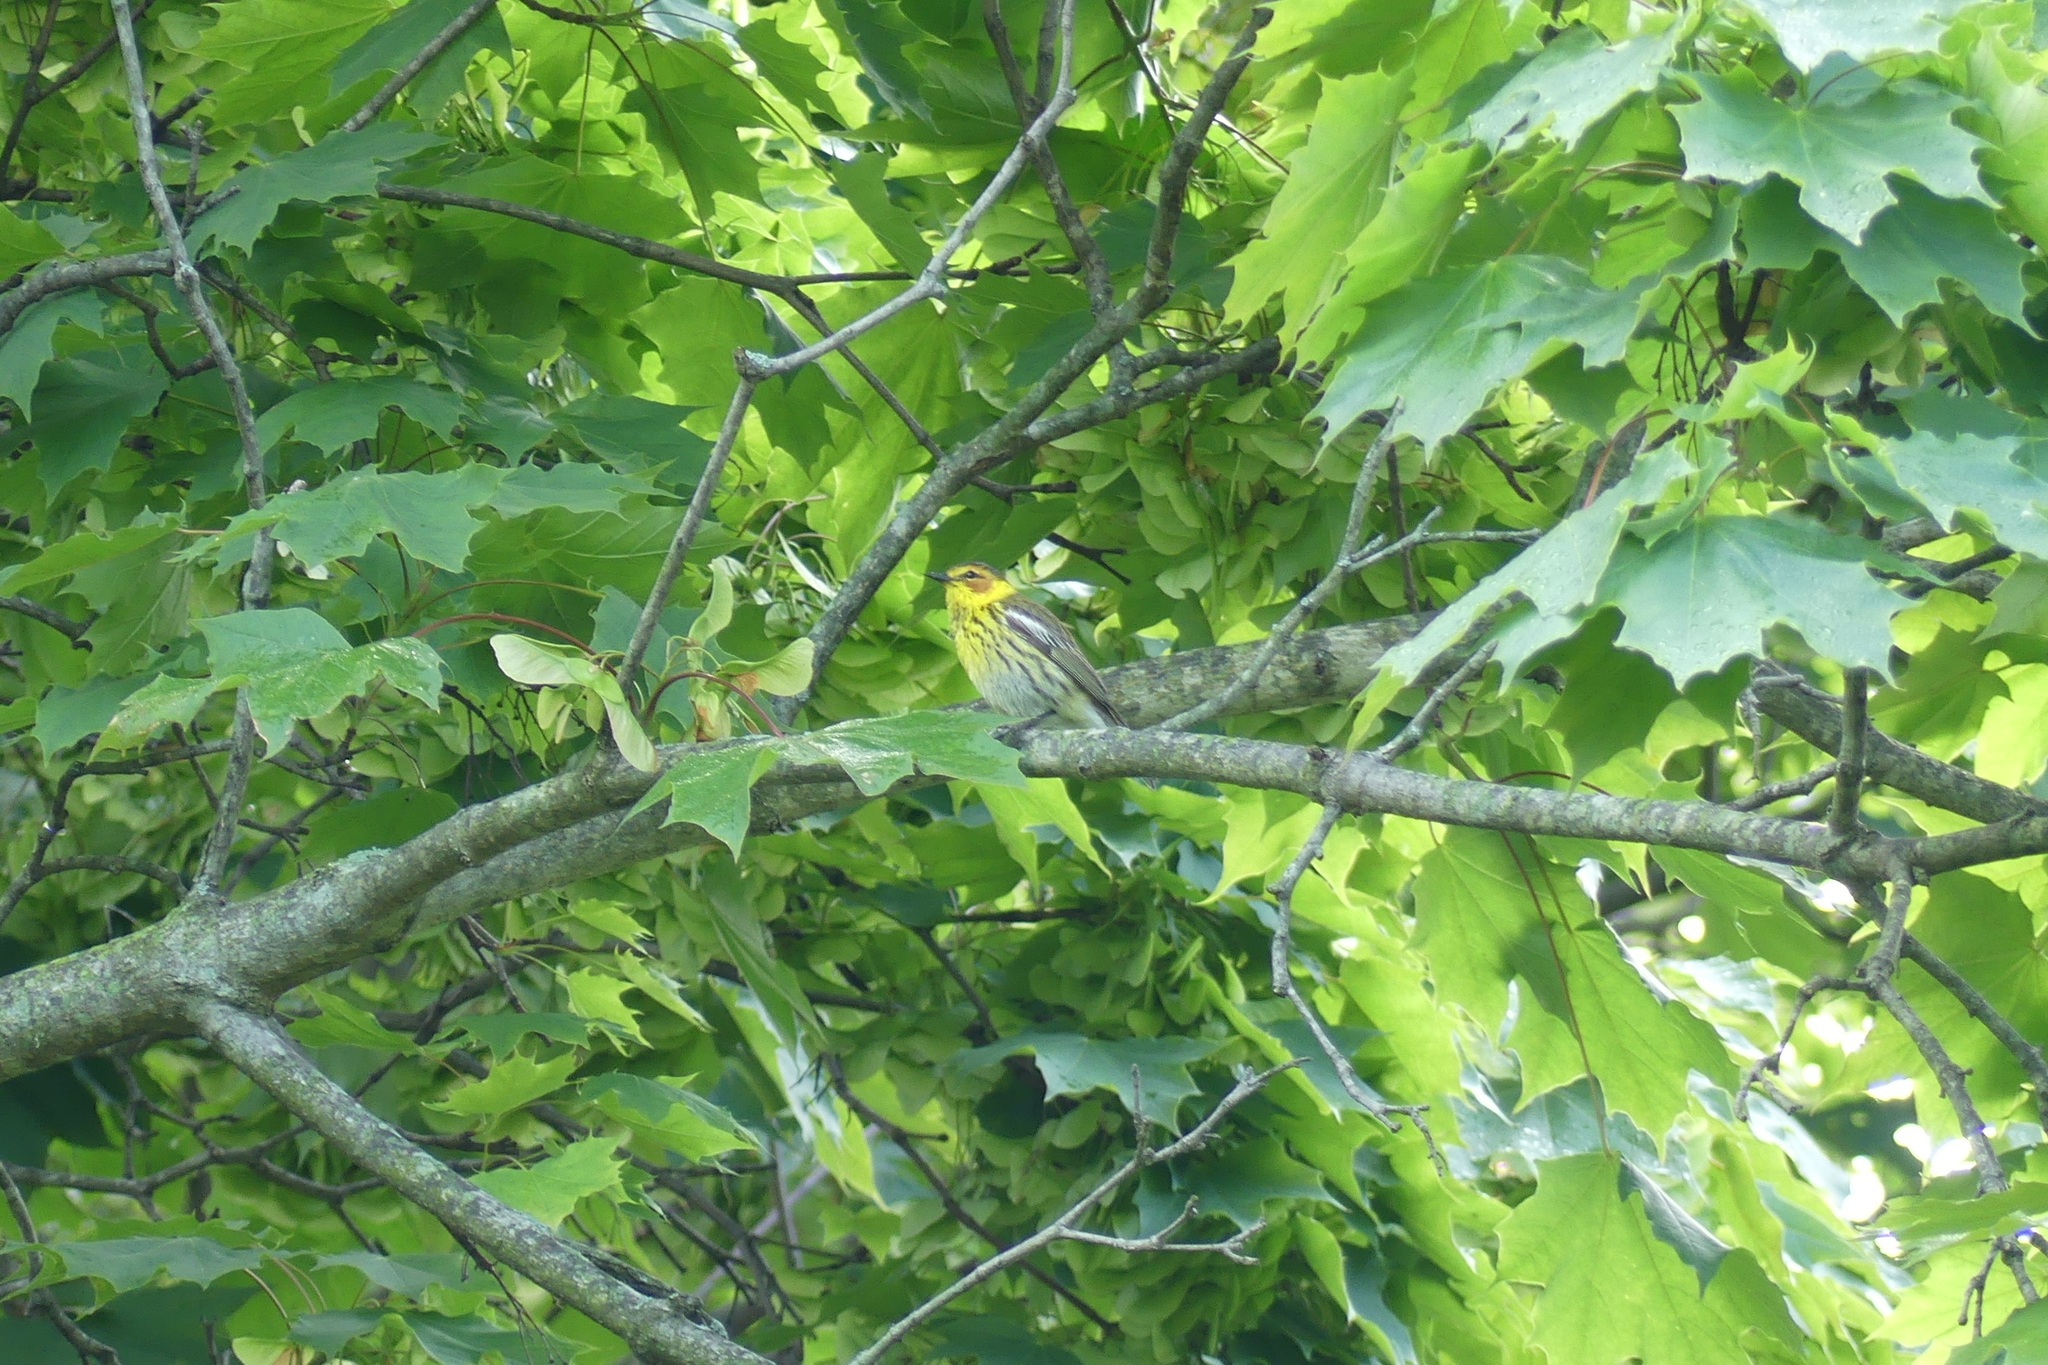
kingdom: Animalia
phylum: Chordata
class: Aves
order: Passeriformes
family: Parulidae
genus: Setophaga
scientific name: Setophaga tigrina
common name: Cape may warbler
